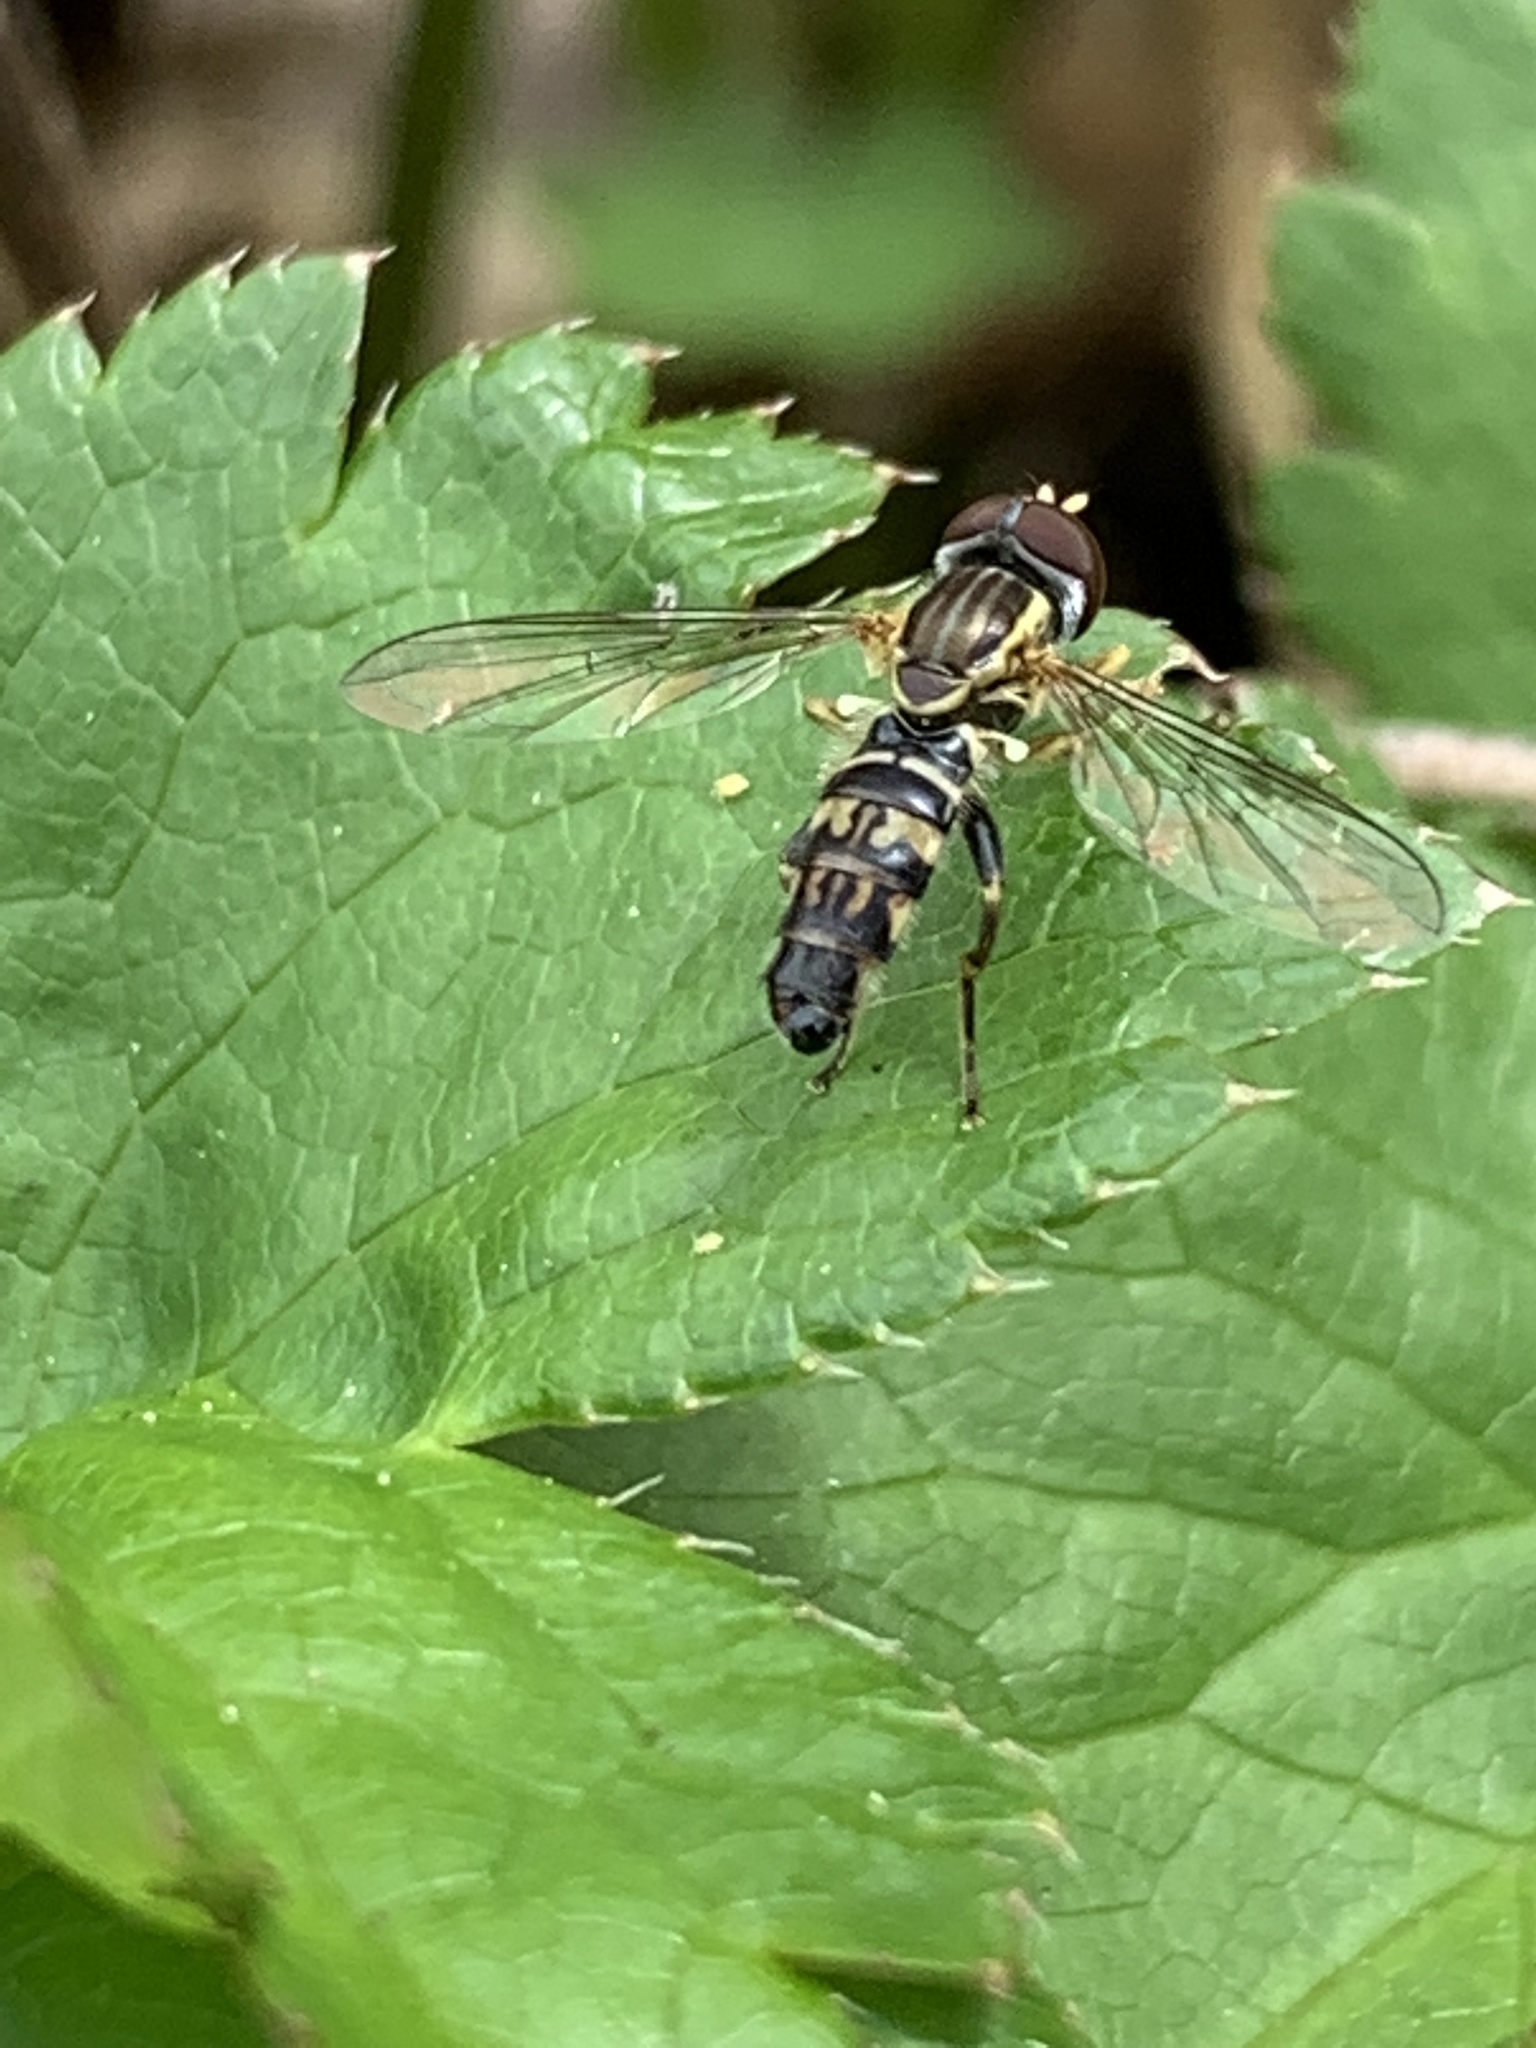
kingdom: Animalia
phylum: Arthropoda
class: Insecta
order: Diptera
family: Syrphidae
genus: Toxomerus
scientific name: Toxomerus geminatus
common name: Eastern calligrapher
